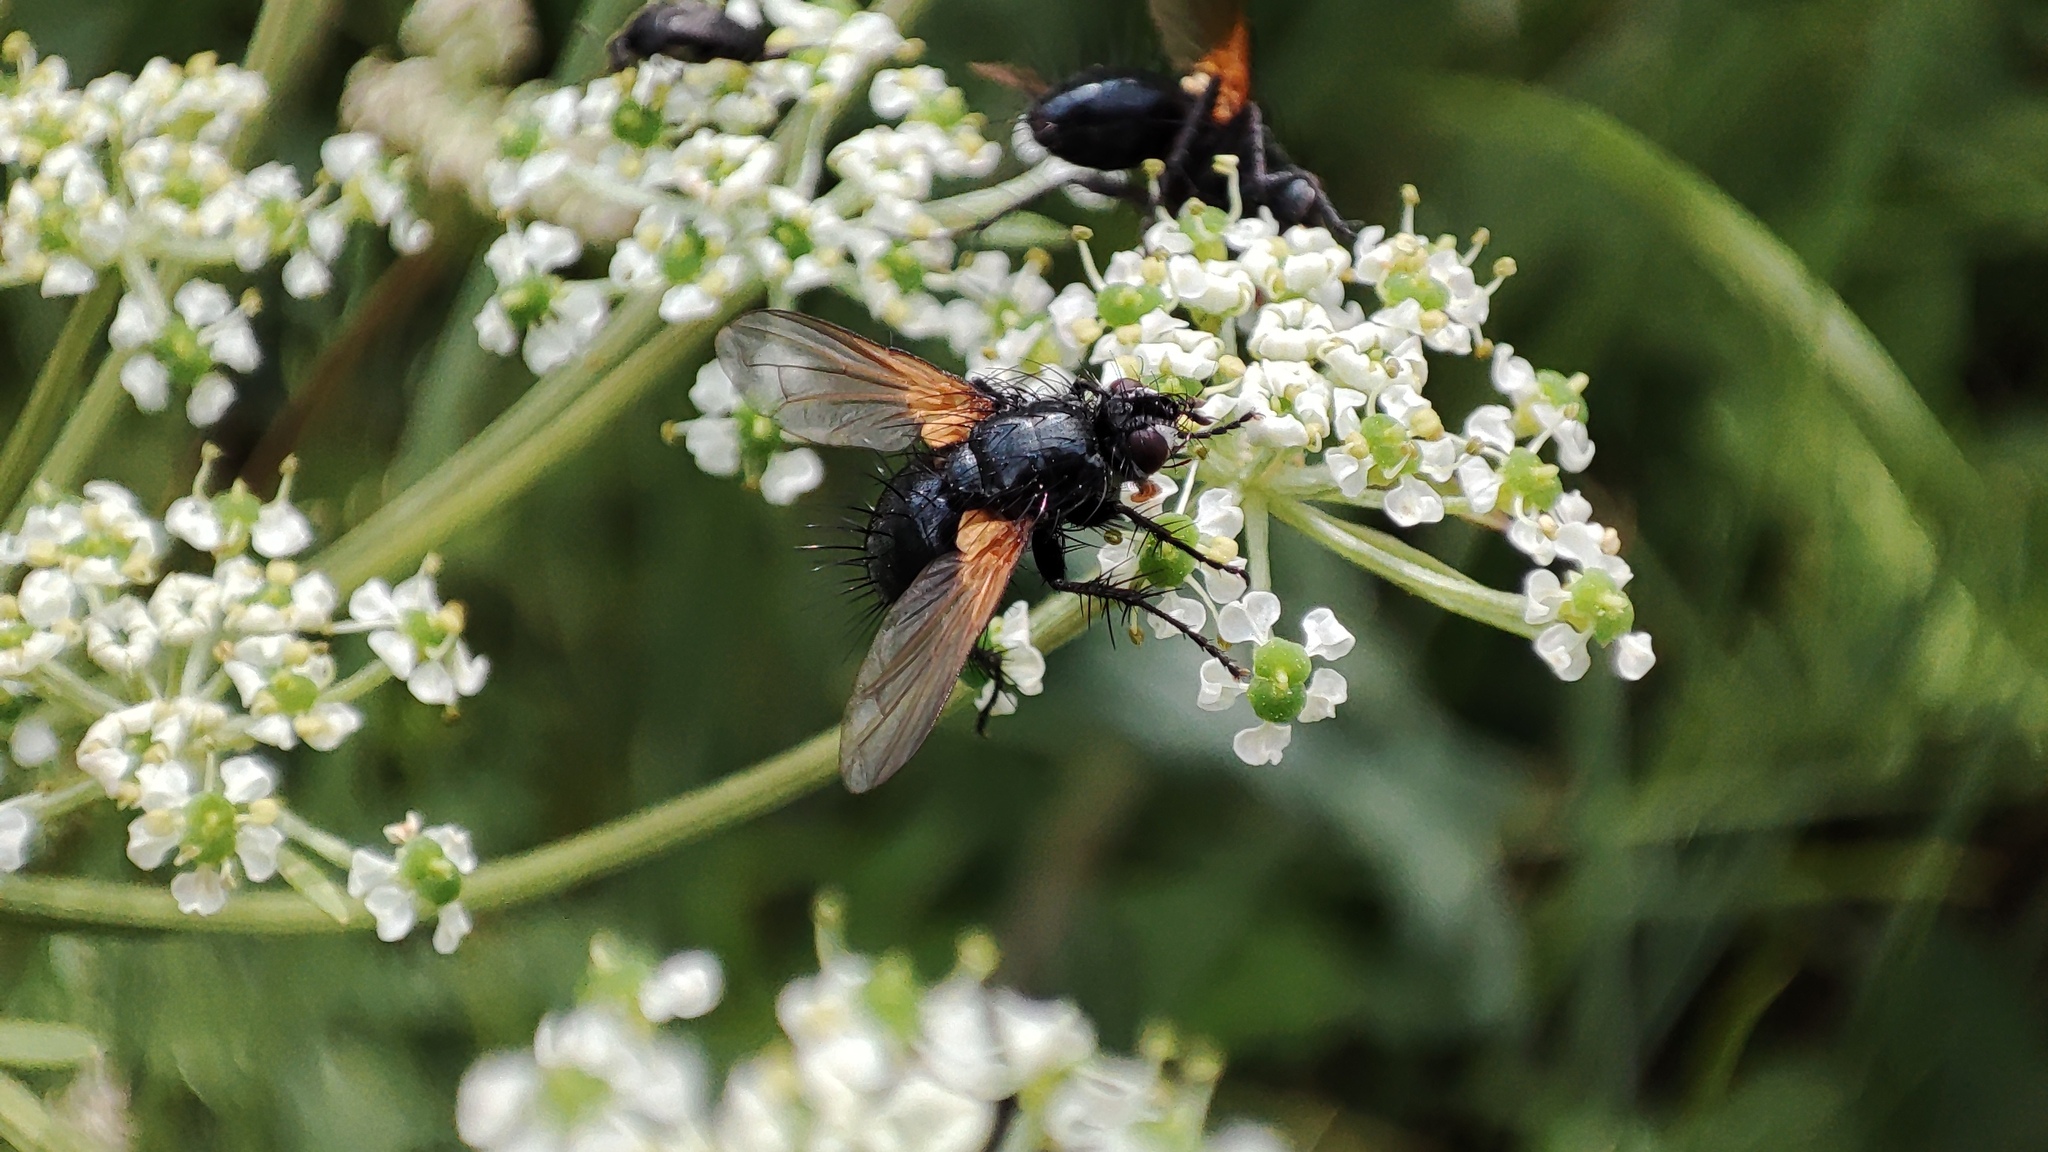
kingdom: Animalia
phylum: Arthropoda
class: Insecta
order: Diptera
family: Tachinidae
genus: Zophomyia
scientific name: Zophomyia temula
